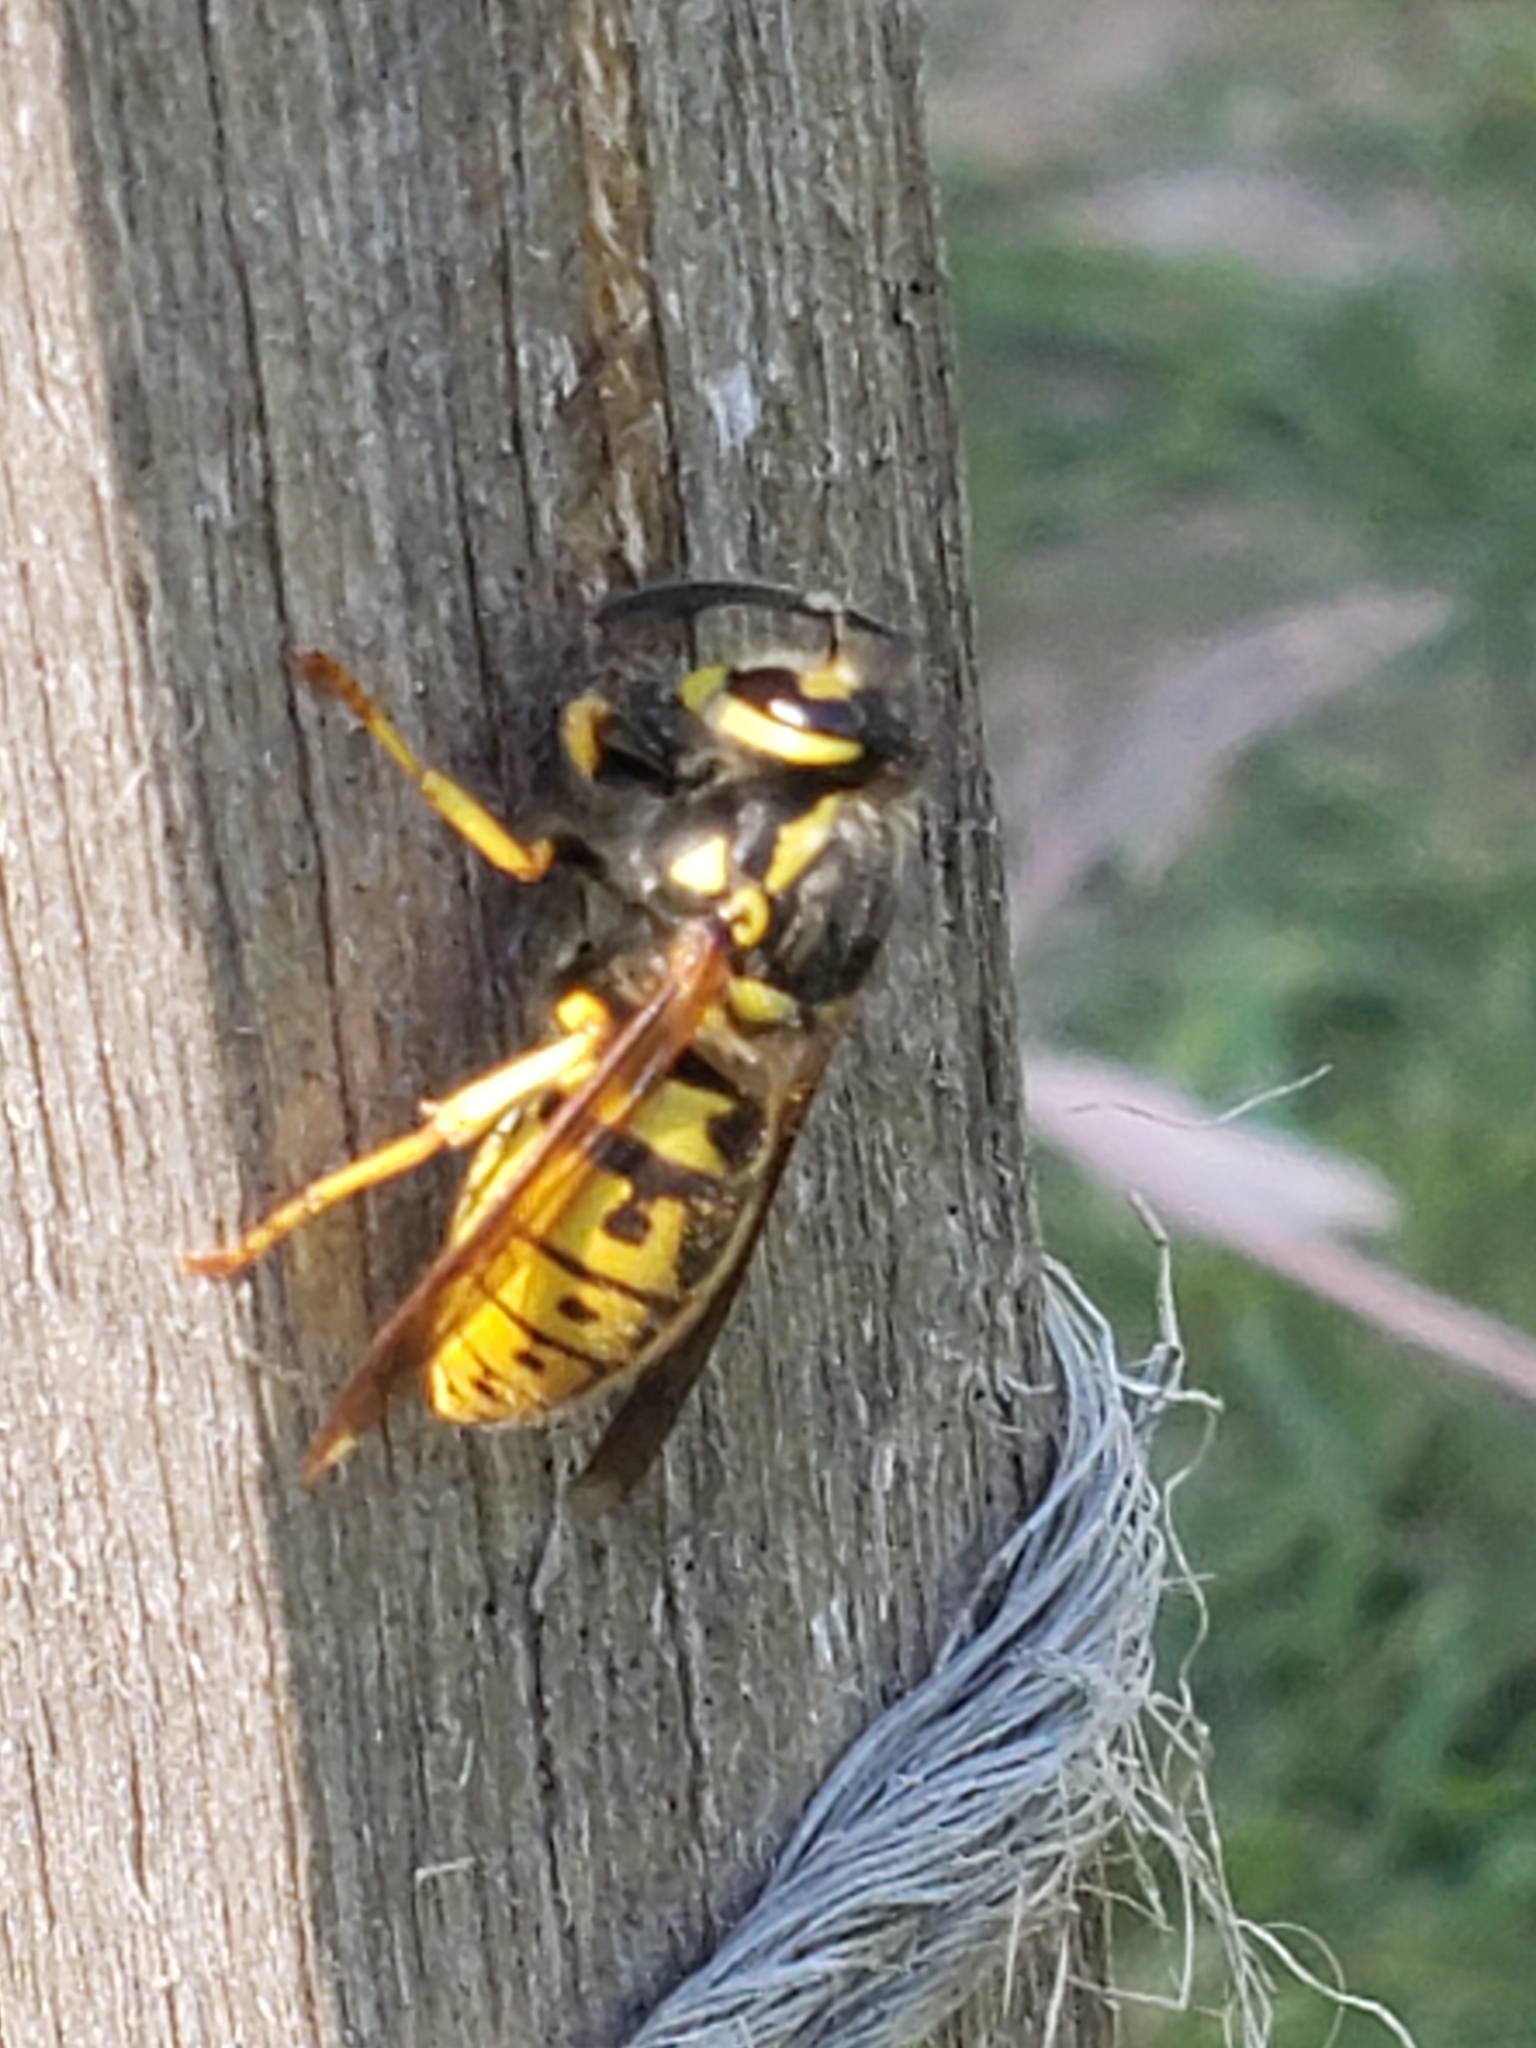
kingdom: Animalia
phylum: Arthropoda
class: Insecta
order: Hymenoptera
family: Vespidae
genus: Vespula
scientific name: Vespula germanica
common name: German wasp
